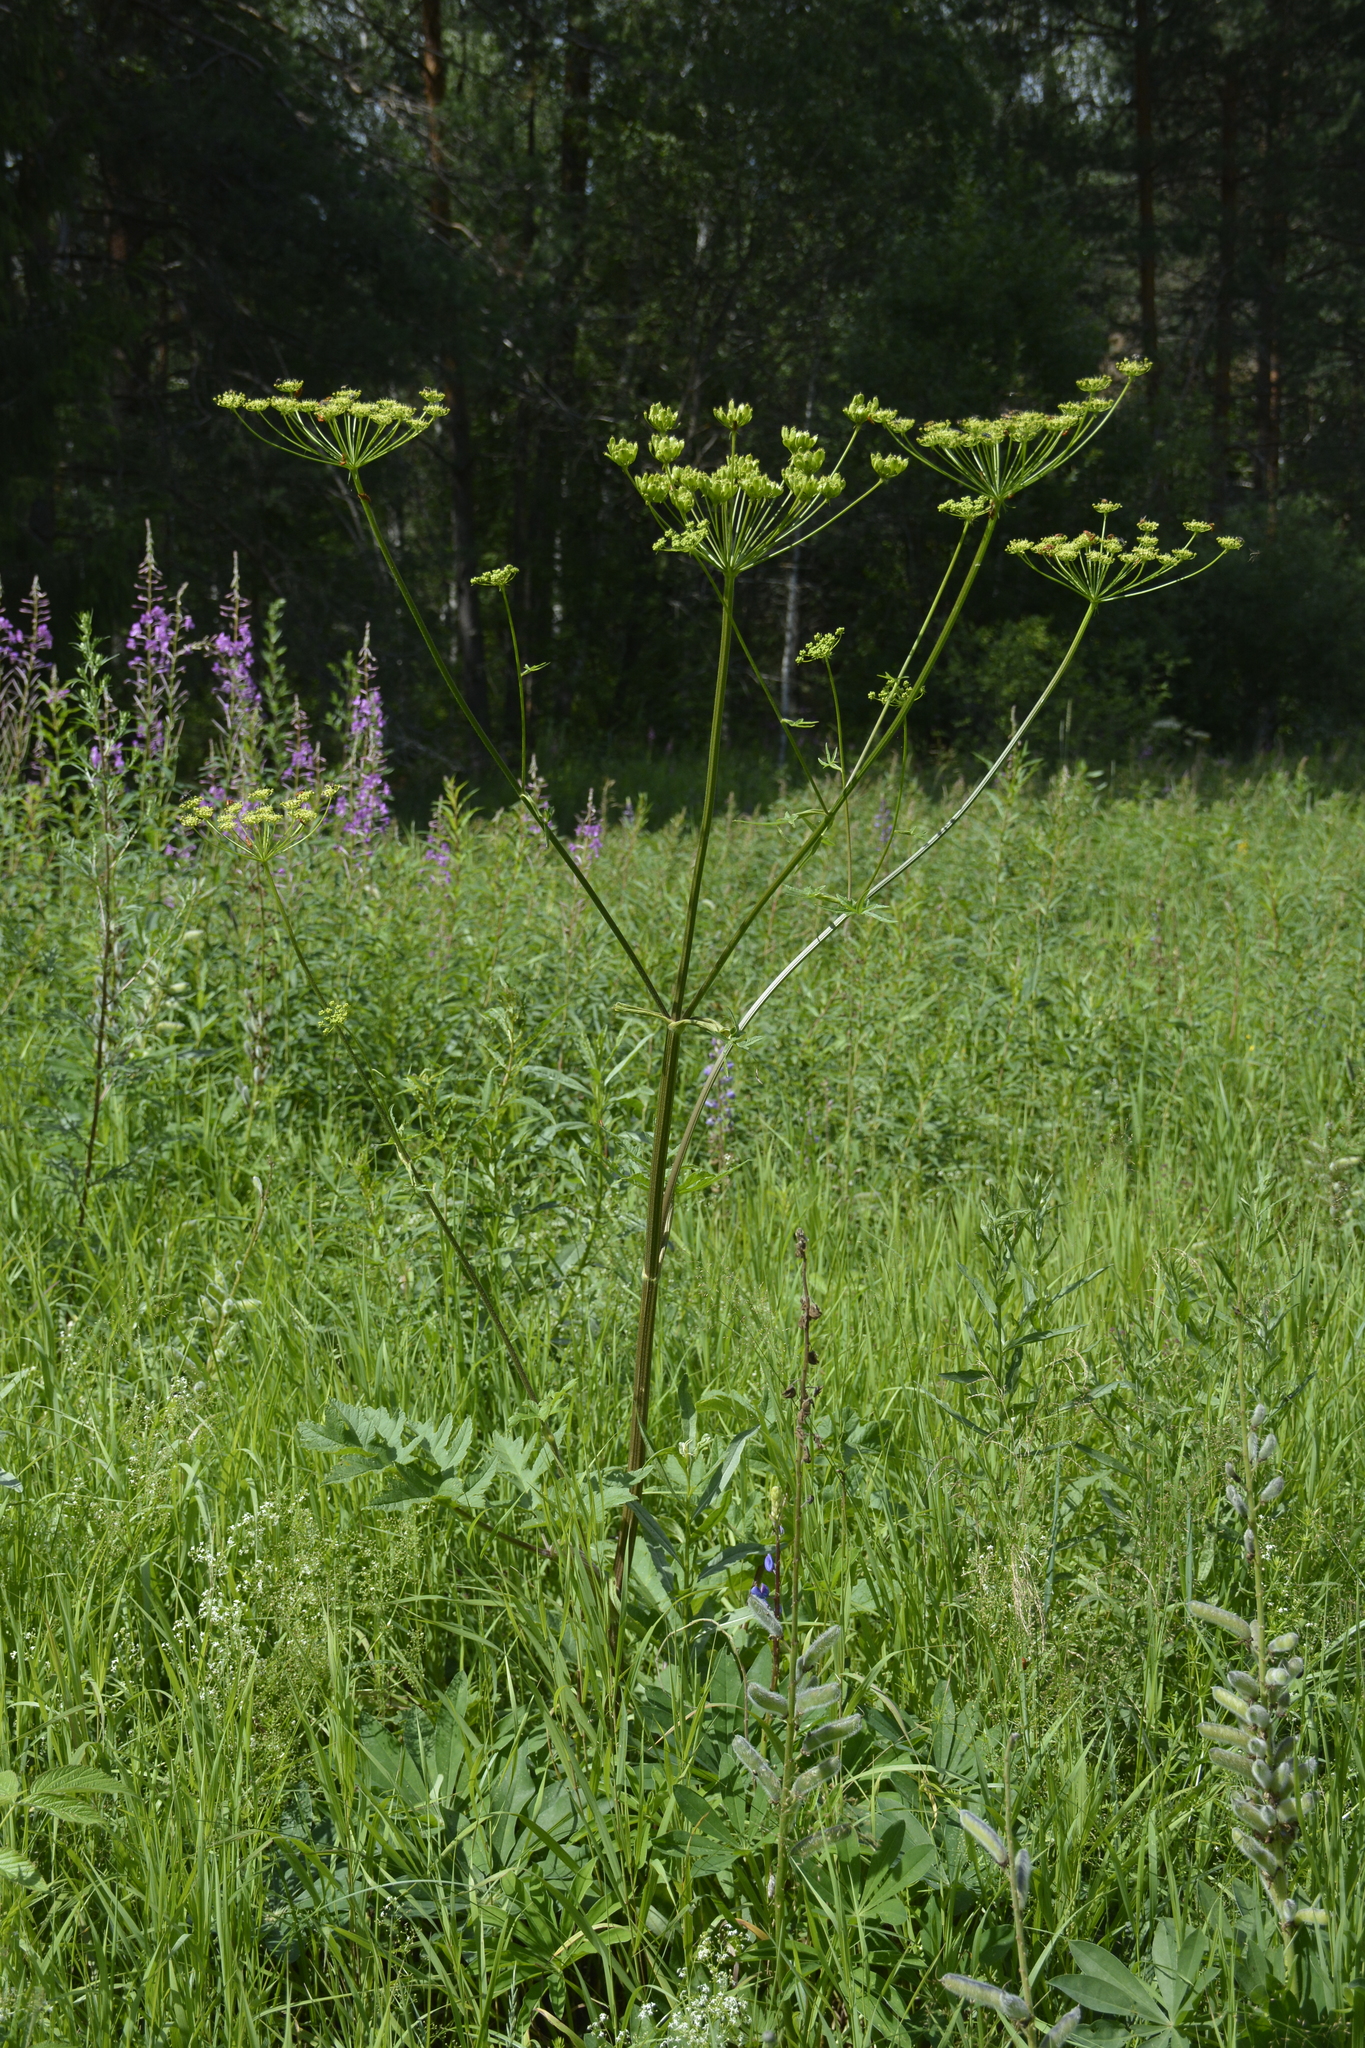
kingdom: Plantae
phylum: Tracheophyta
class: Magnoliopsida
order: Apiales
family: Apiaceae
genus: Heracleum
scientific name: Heracleum sphondylium
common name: Hogweed
